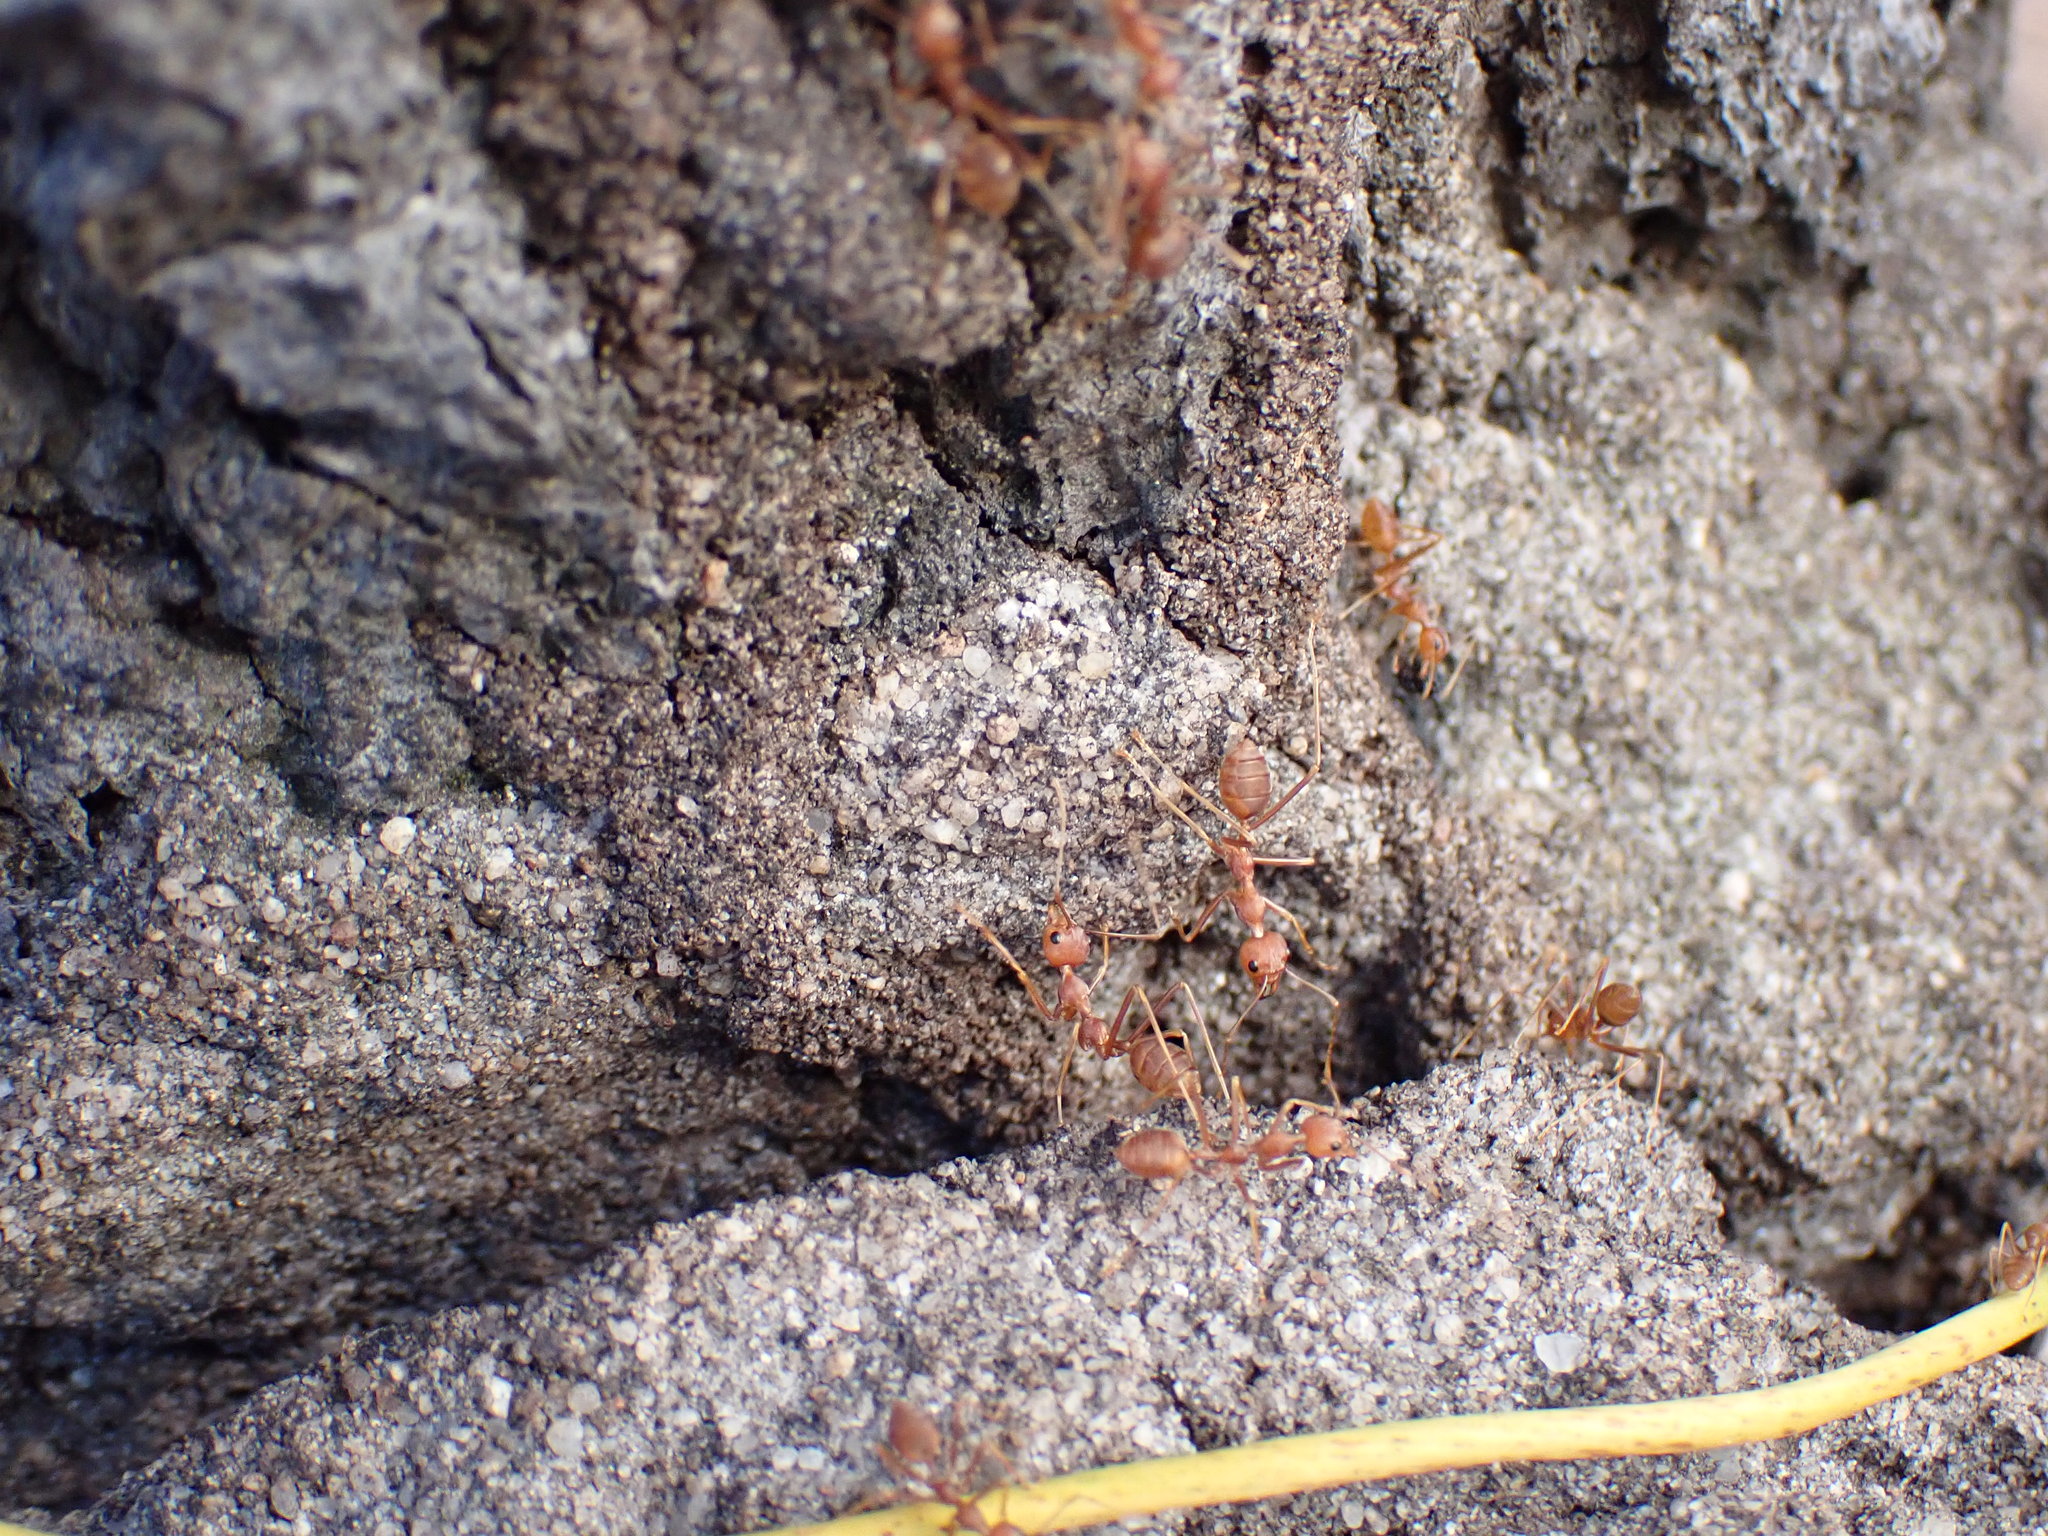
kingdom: Animalia
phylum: Arthropoda
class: Insecta
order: Hymenoptera
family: Formicidae
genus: Oecophylla
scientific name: Oecophylla smaragdina
